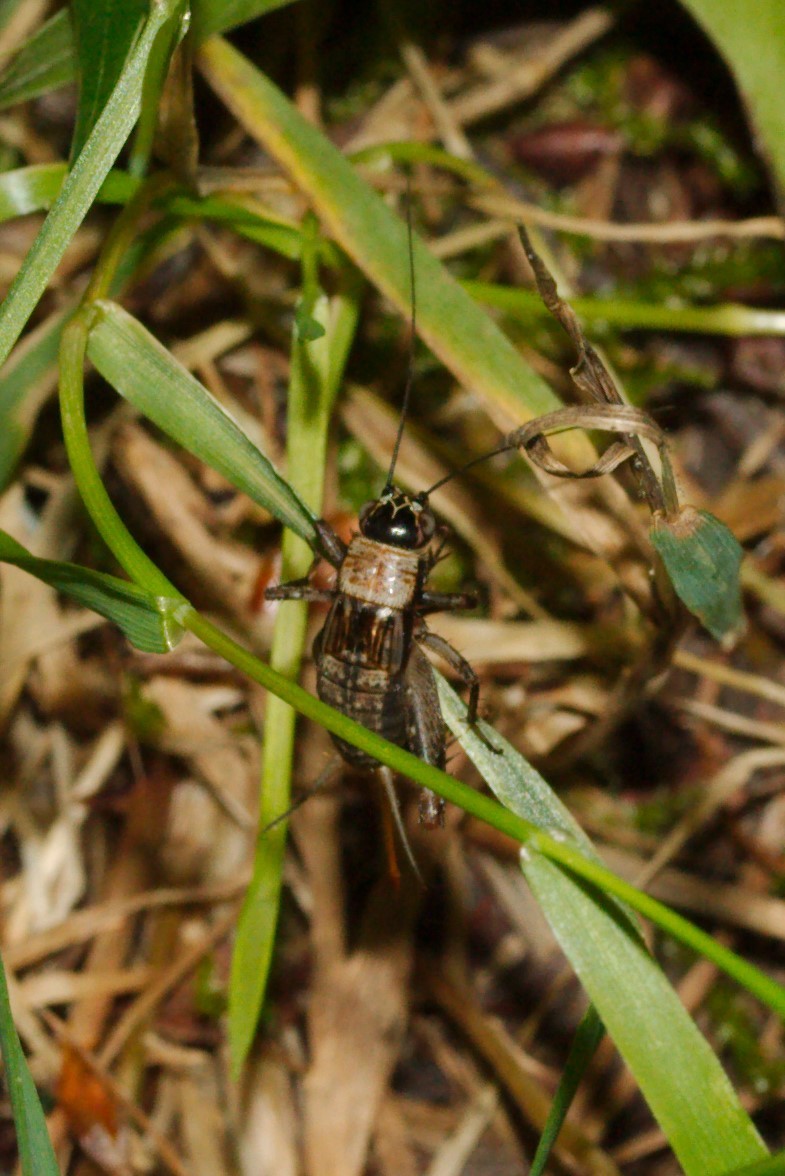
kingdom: Animalia
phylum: Arthropoda
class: Insecta
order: Orthoptera
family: Trigonidiidae
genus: Nemobius
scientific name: Nemobius sylvestris
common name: Wood-cricket
